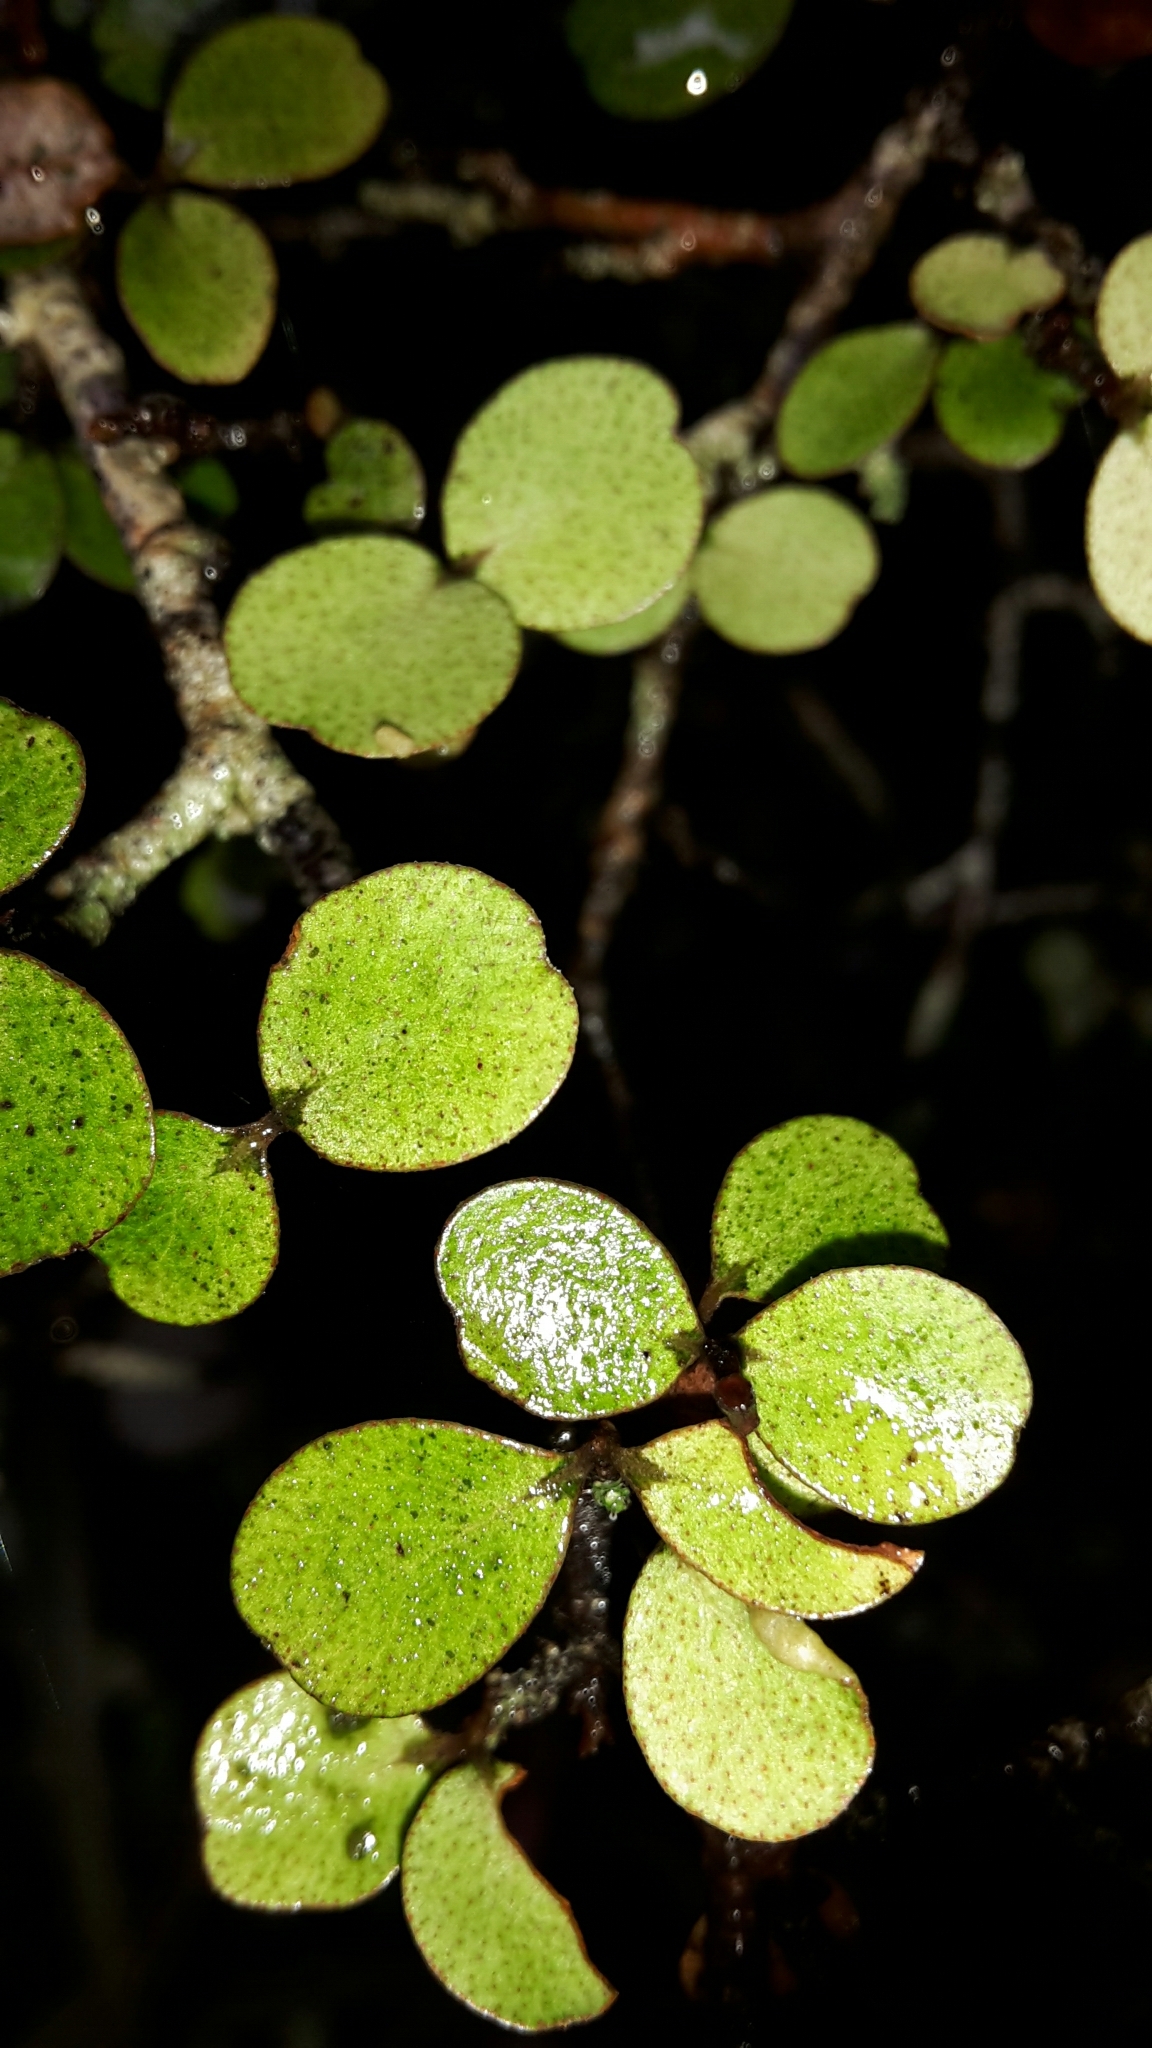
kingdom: Plantae
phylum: Tracheophyta
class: Magnoliopsida
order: Ericales
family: Primulaceae
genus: Myrsine
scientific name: Myrsine divaricata
